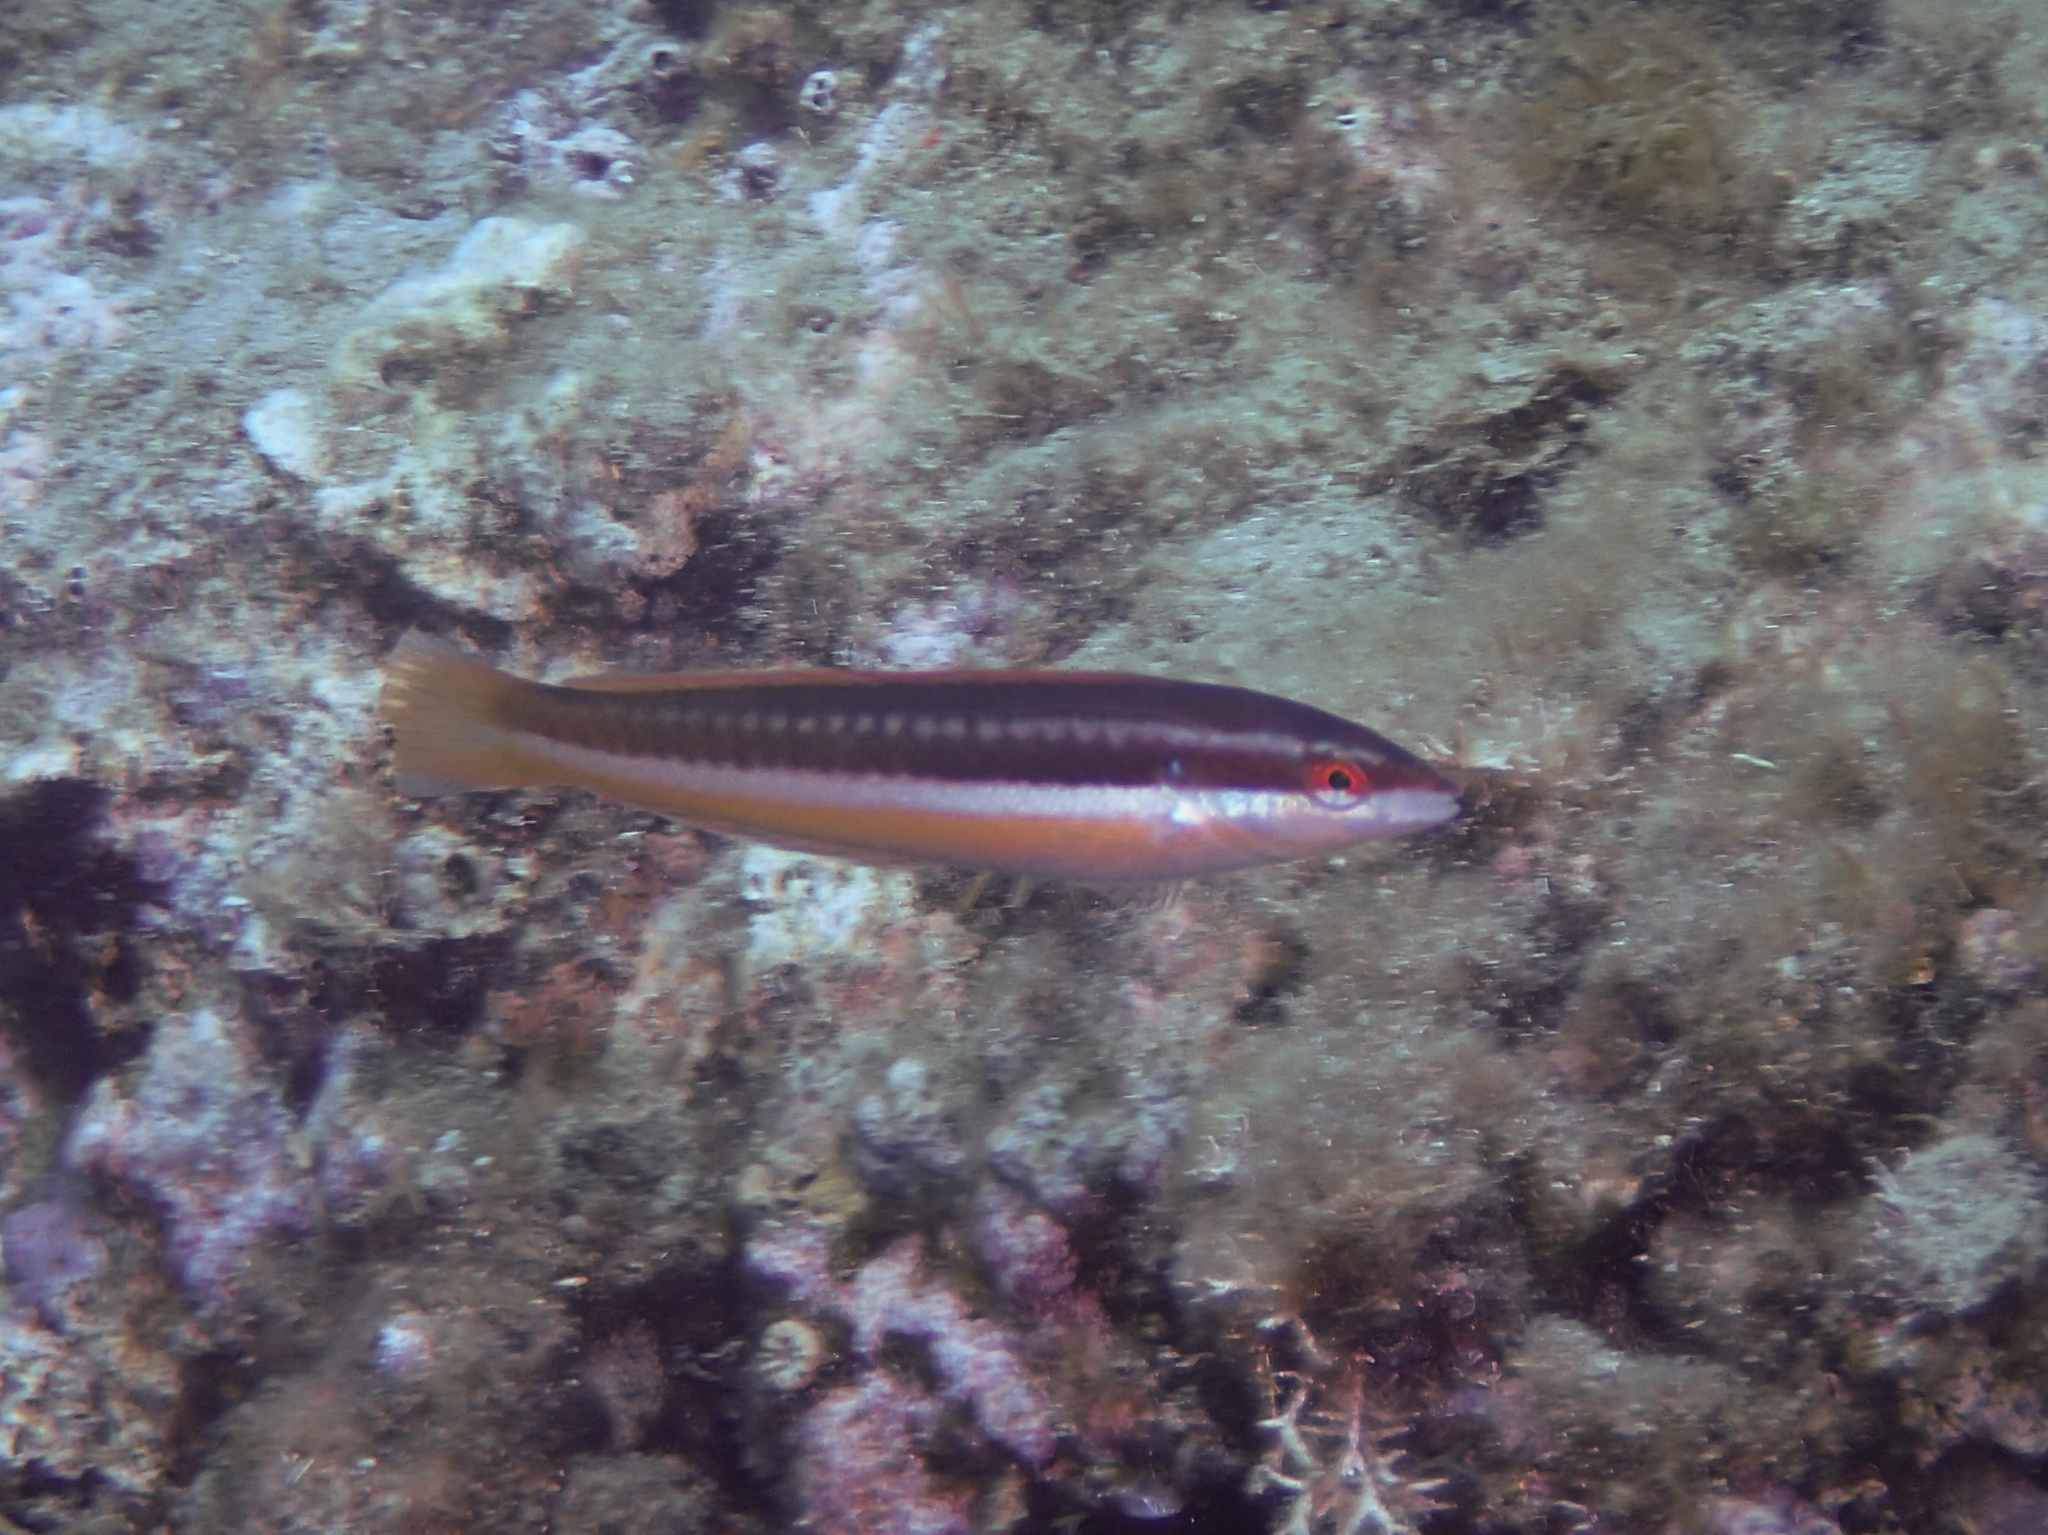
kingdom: Animalia
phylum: Chordata
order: Perciformes
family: Labridae
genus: Coris
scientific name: Coris julis
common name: Rainbow wrasse
